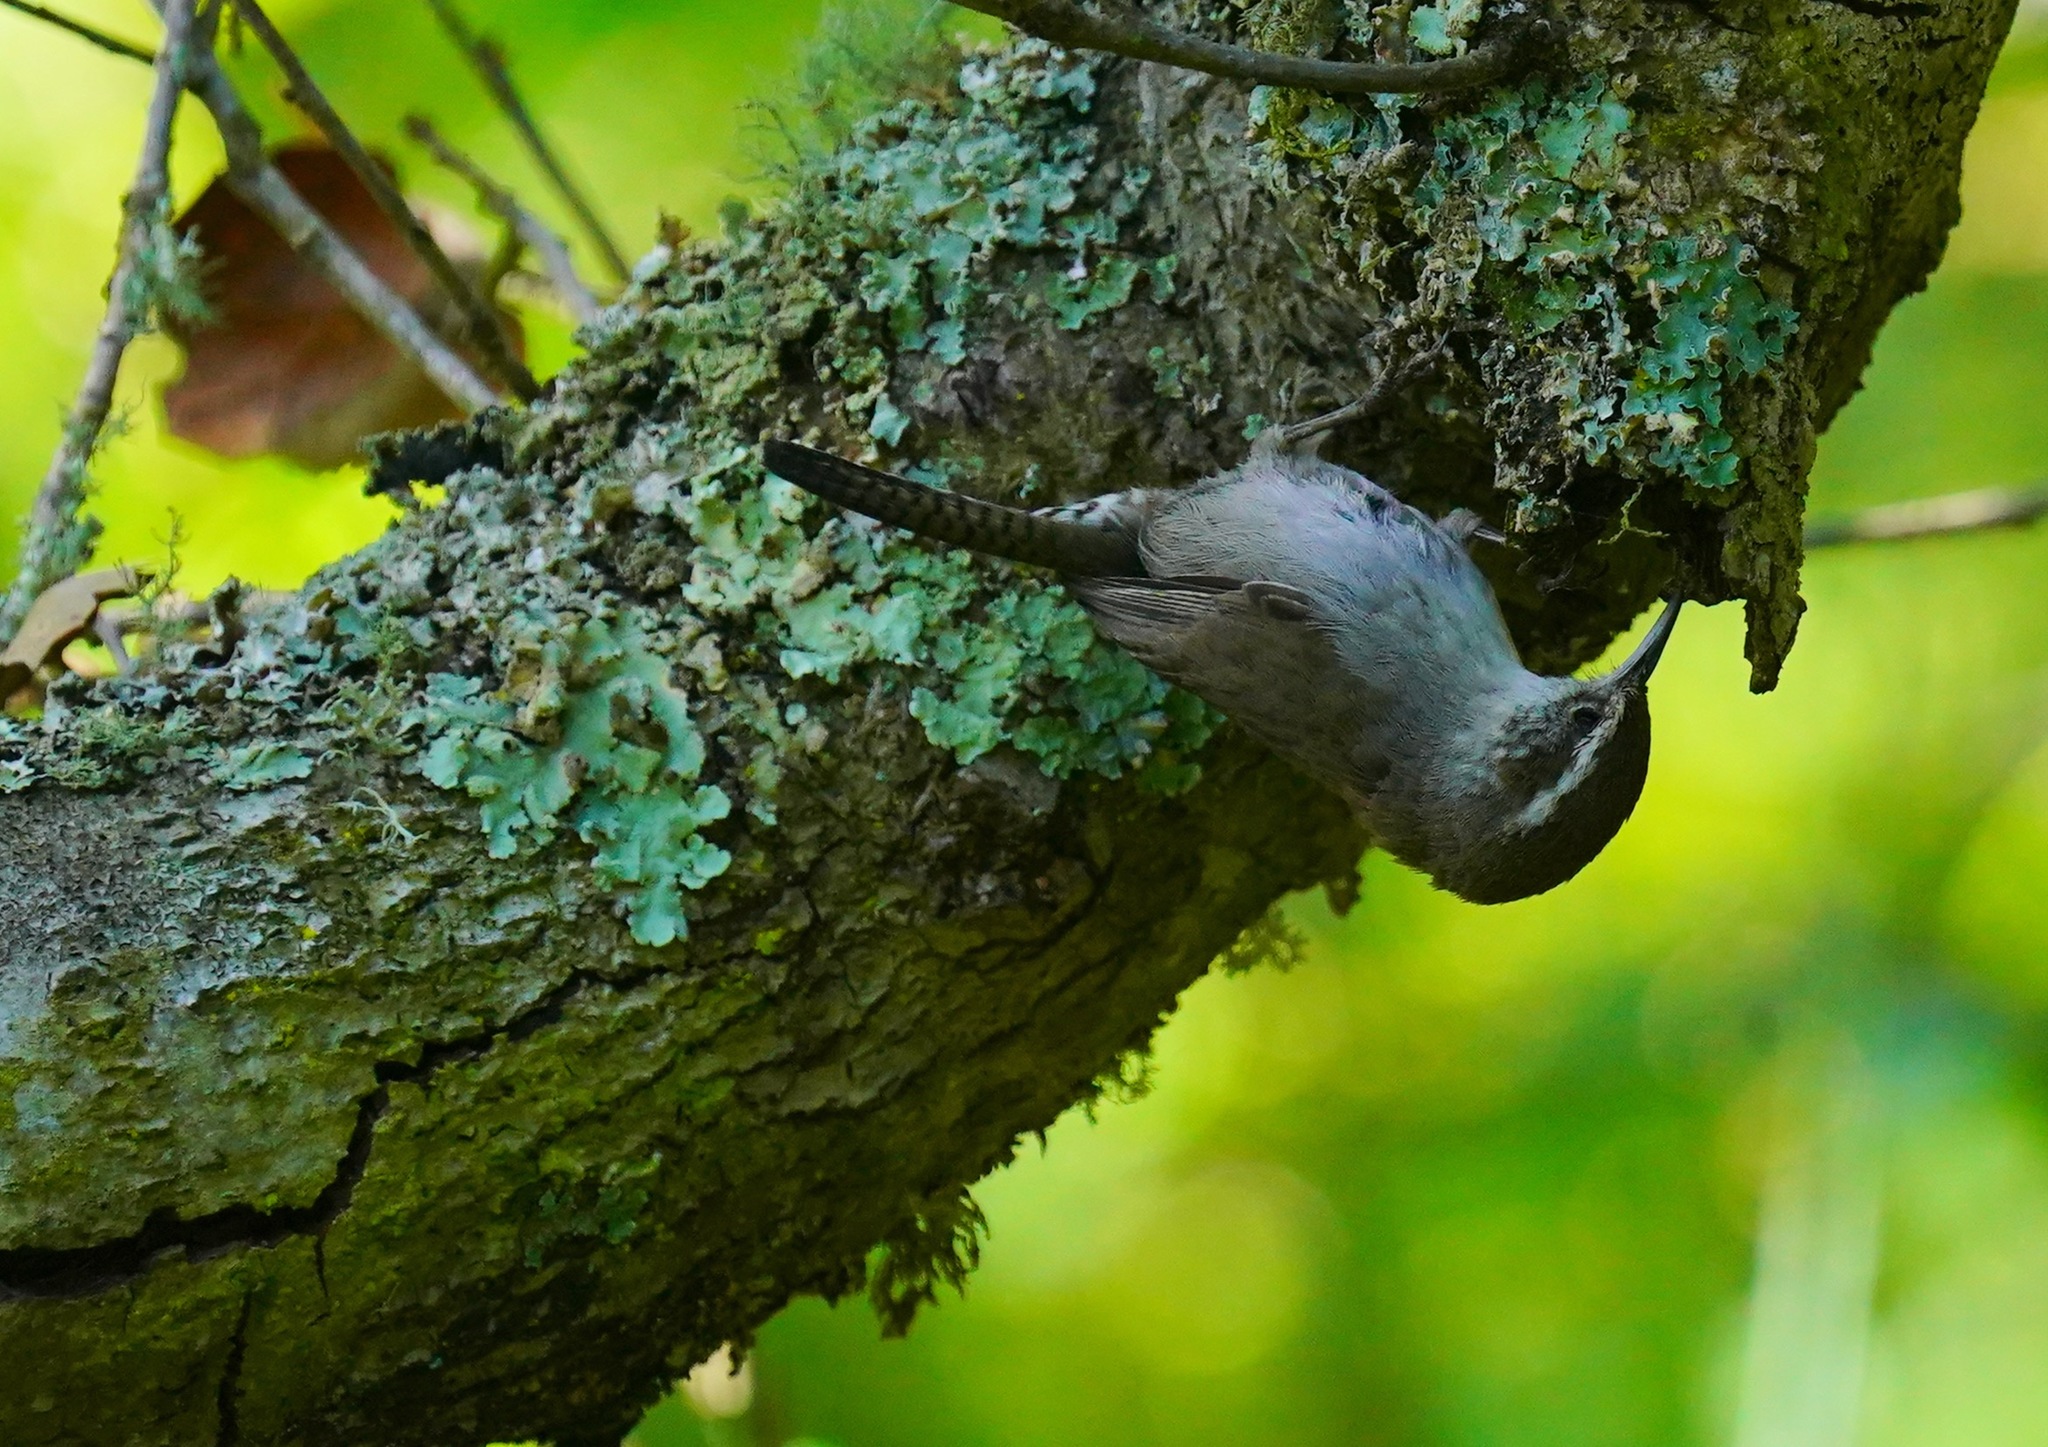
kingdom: Animalia
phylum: Chordata
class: Aves
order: Passeriformes
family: Troglodytidae
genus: Thryomanes
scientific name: Thryomanes bewickii
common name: Bewick's wren
